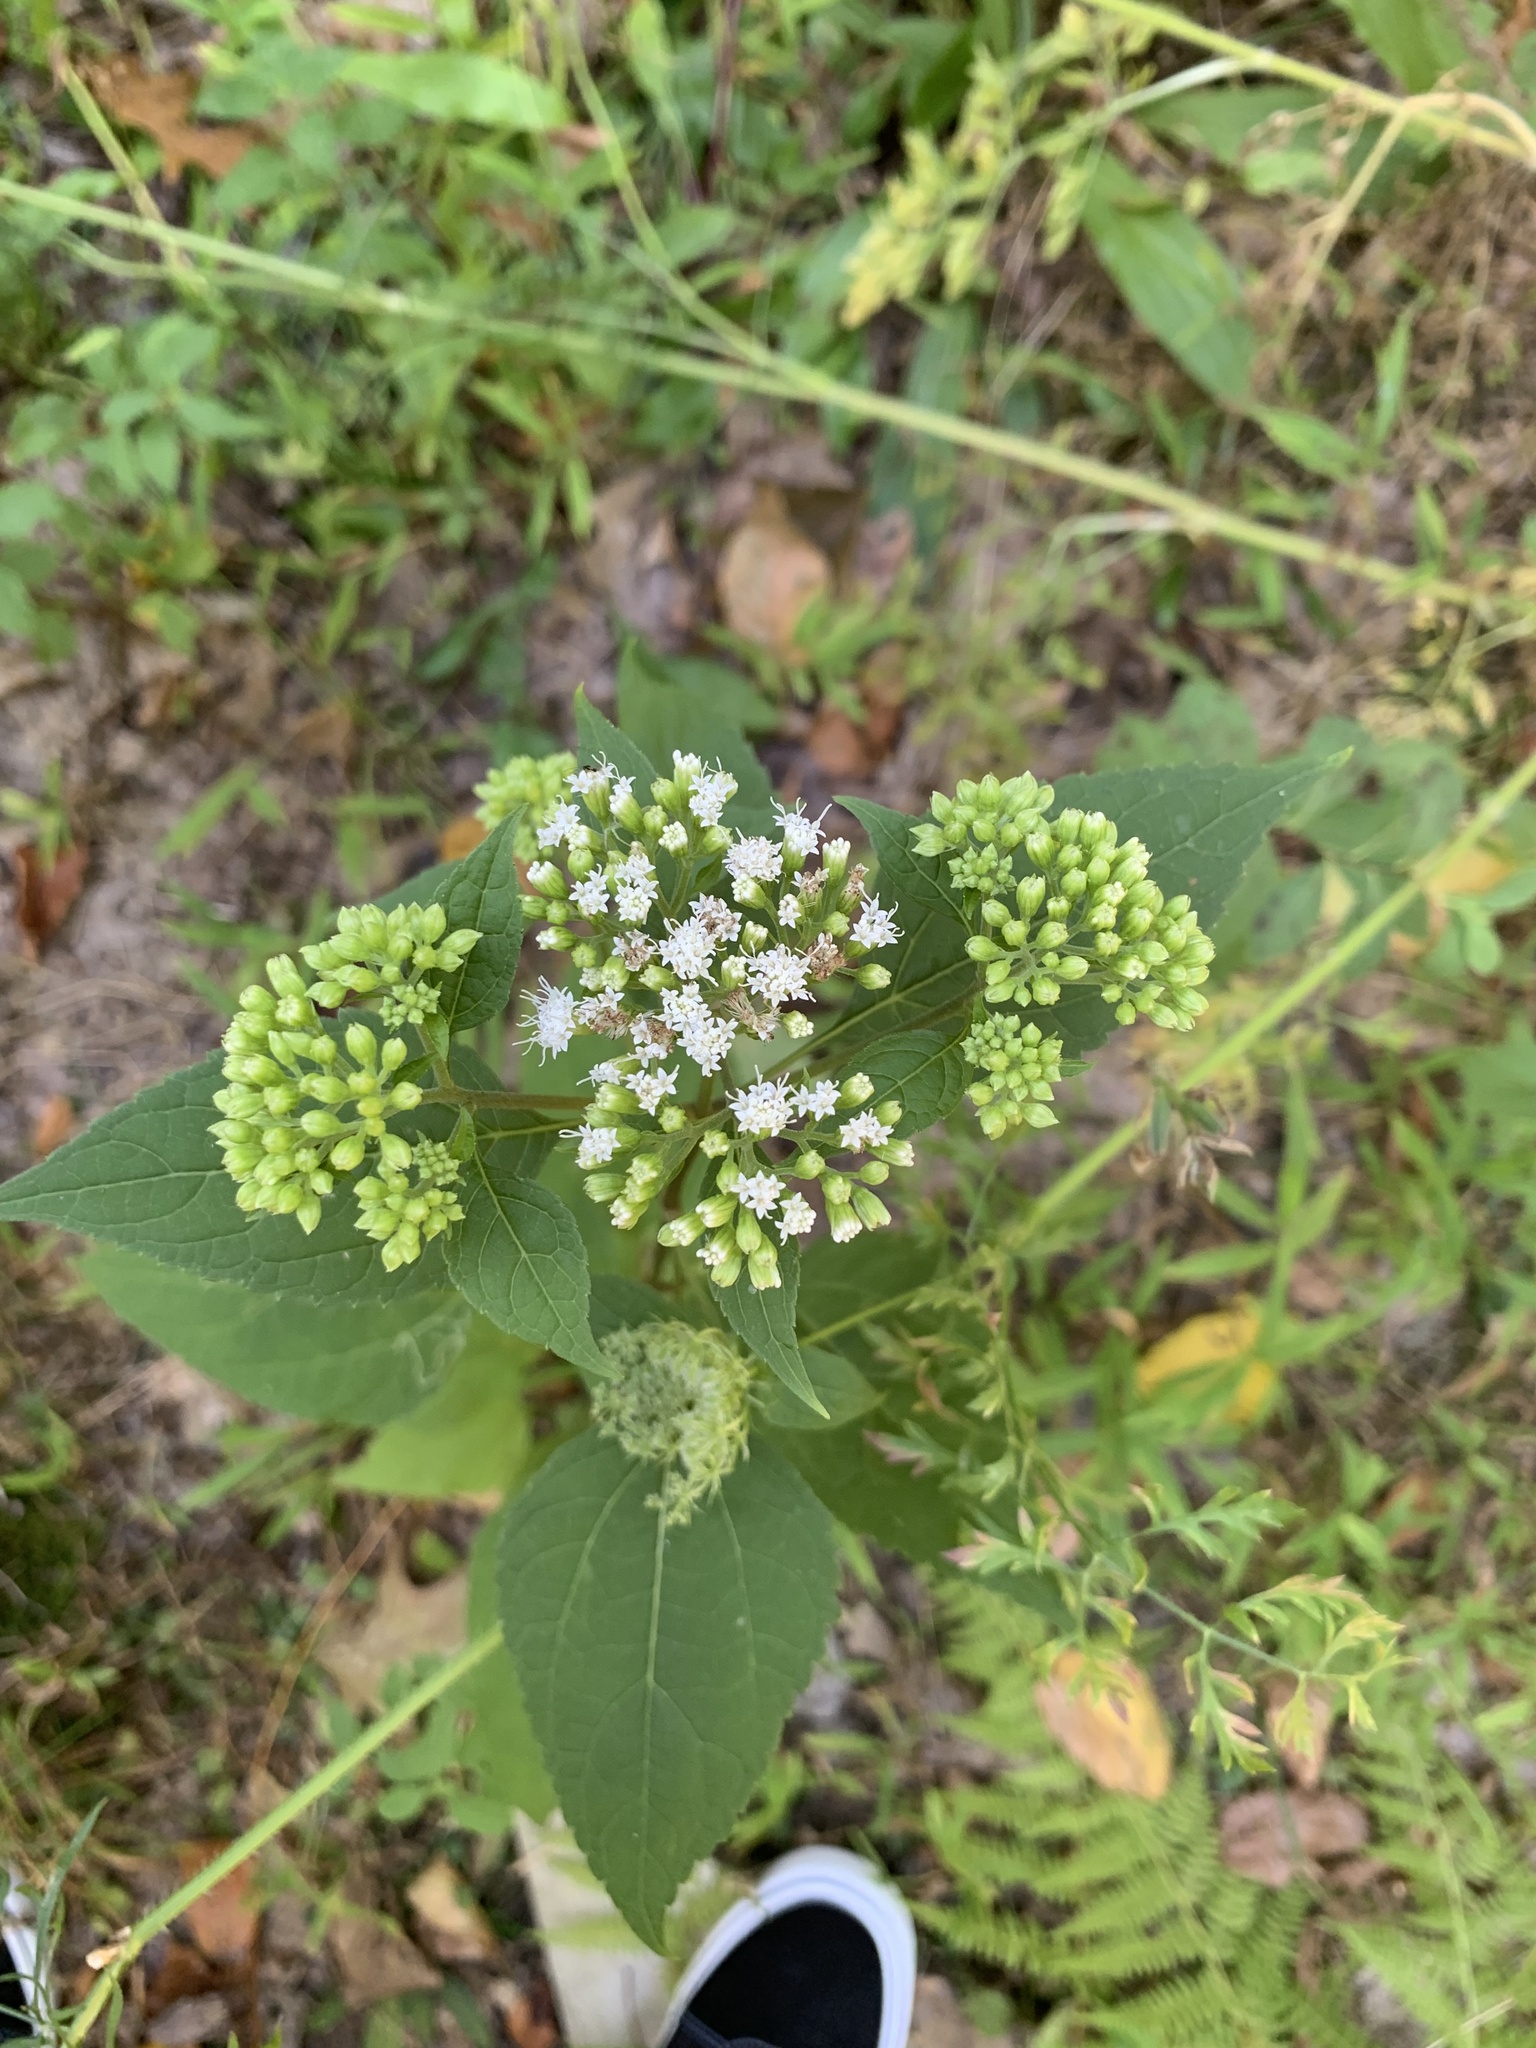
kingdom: Plantae
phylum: Tracheophyta
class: Magnoliopsida
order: Asterales
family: Asteraceae
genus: Ageratina
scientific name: Ageratina altissima
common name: White snakeroot
